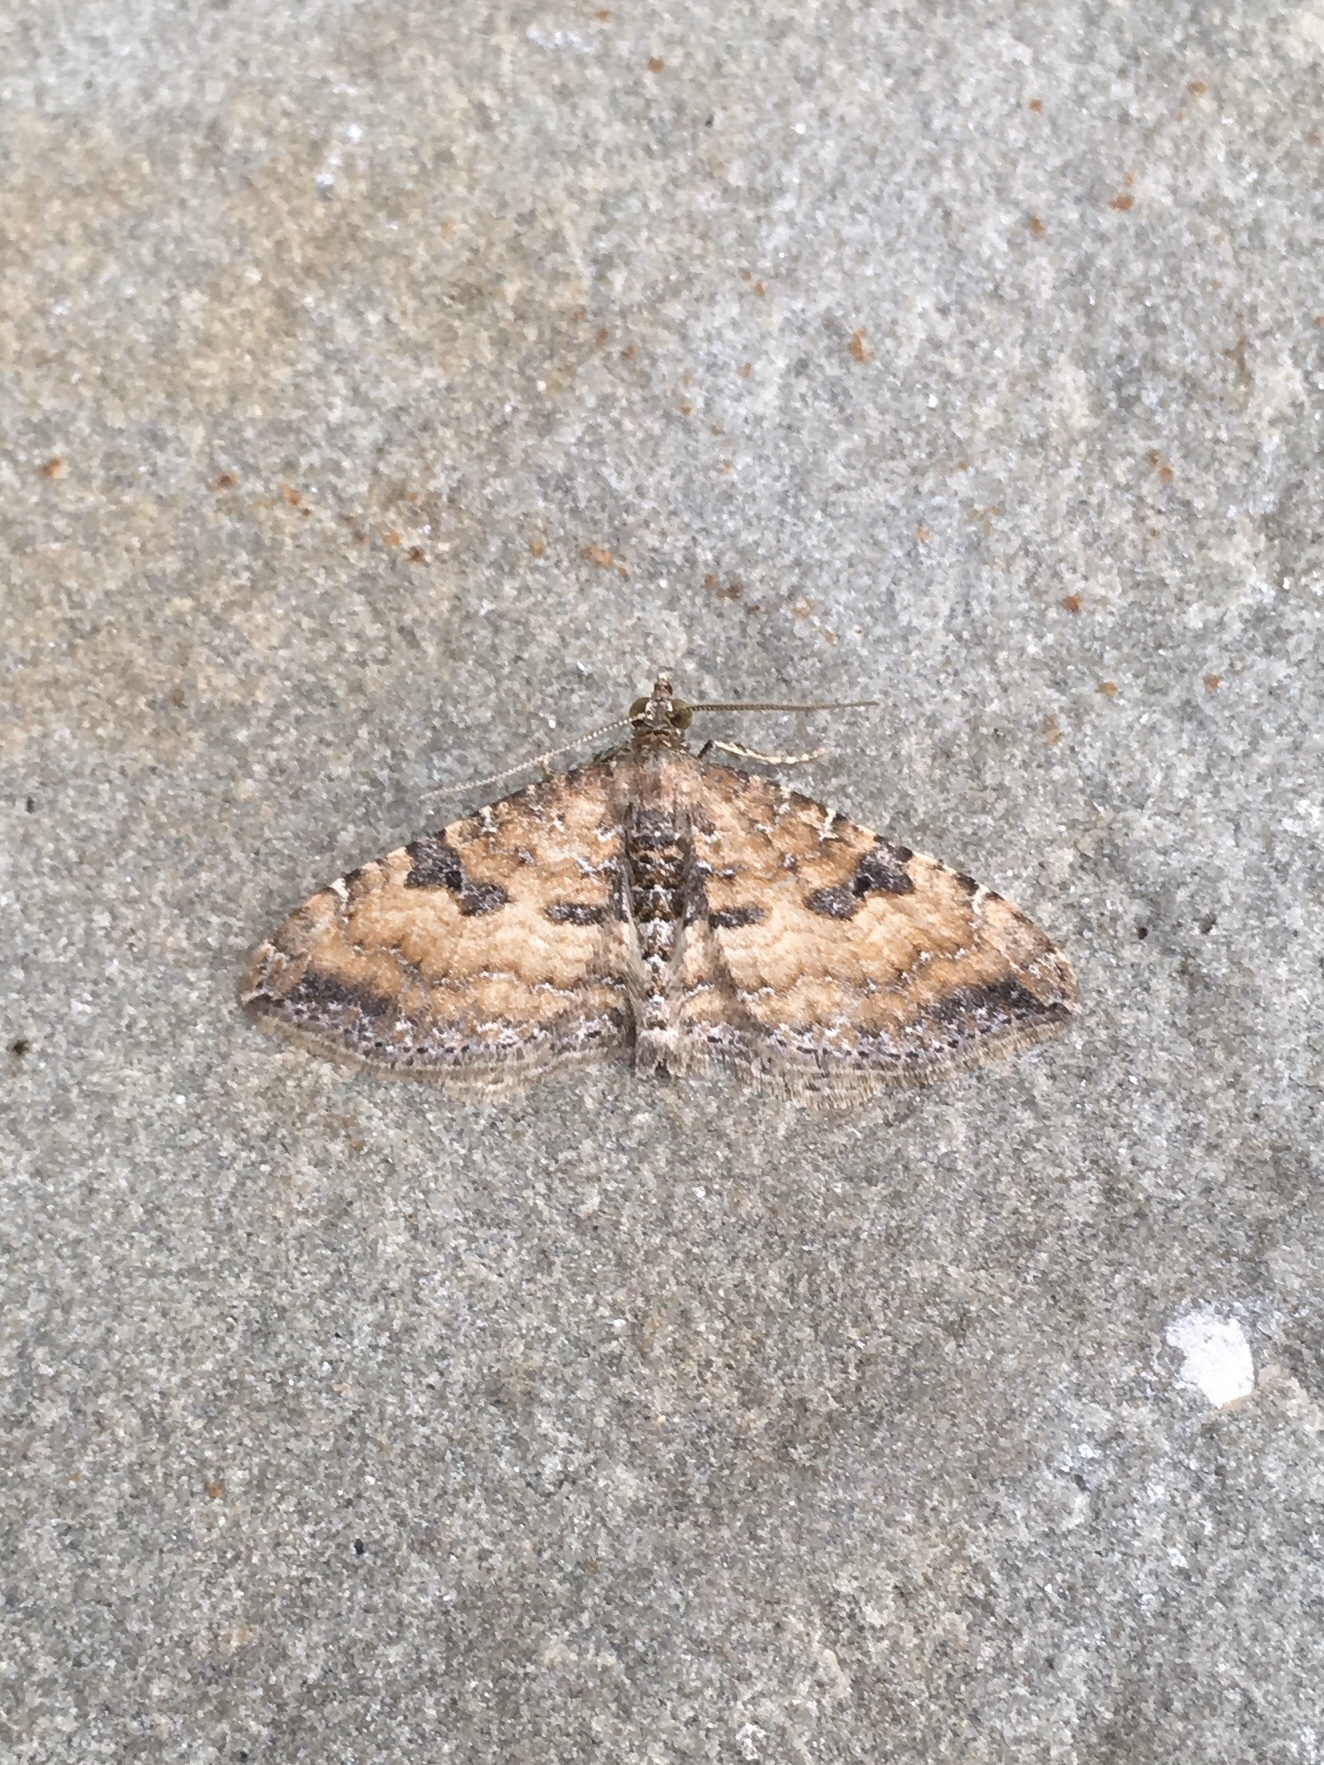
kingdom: Animalia
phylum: Arthropoda
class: Insecta
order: Lepidoptera
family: Geometridae
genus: Orthonama
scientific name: Orthonama obstipata
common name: The gem
